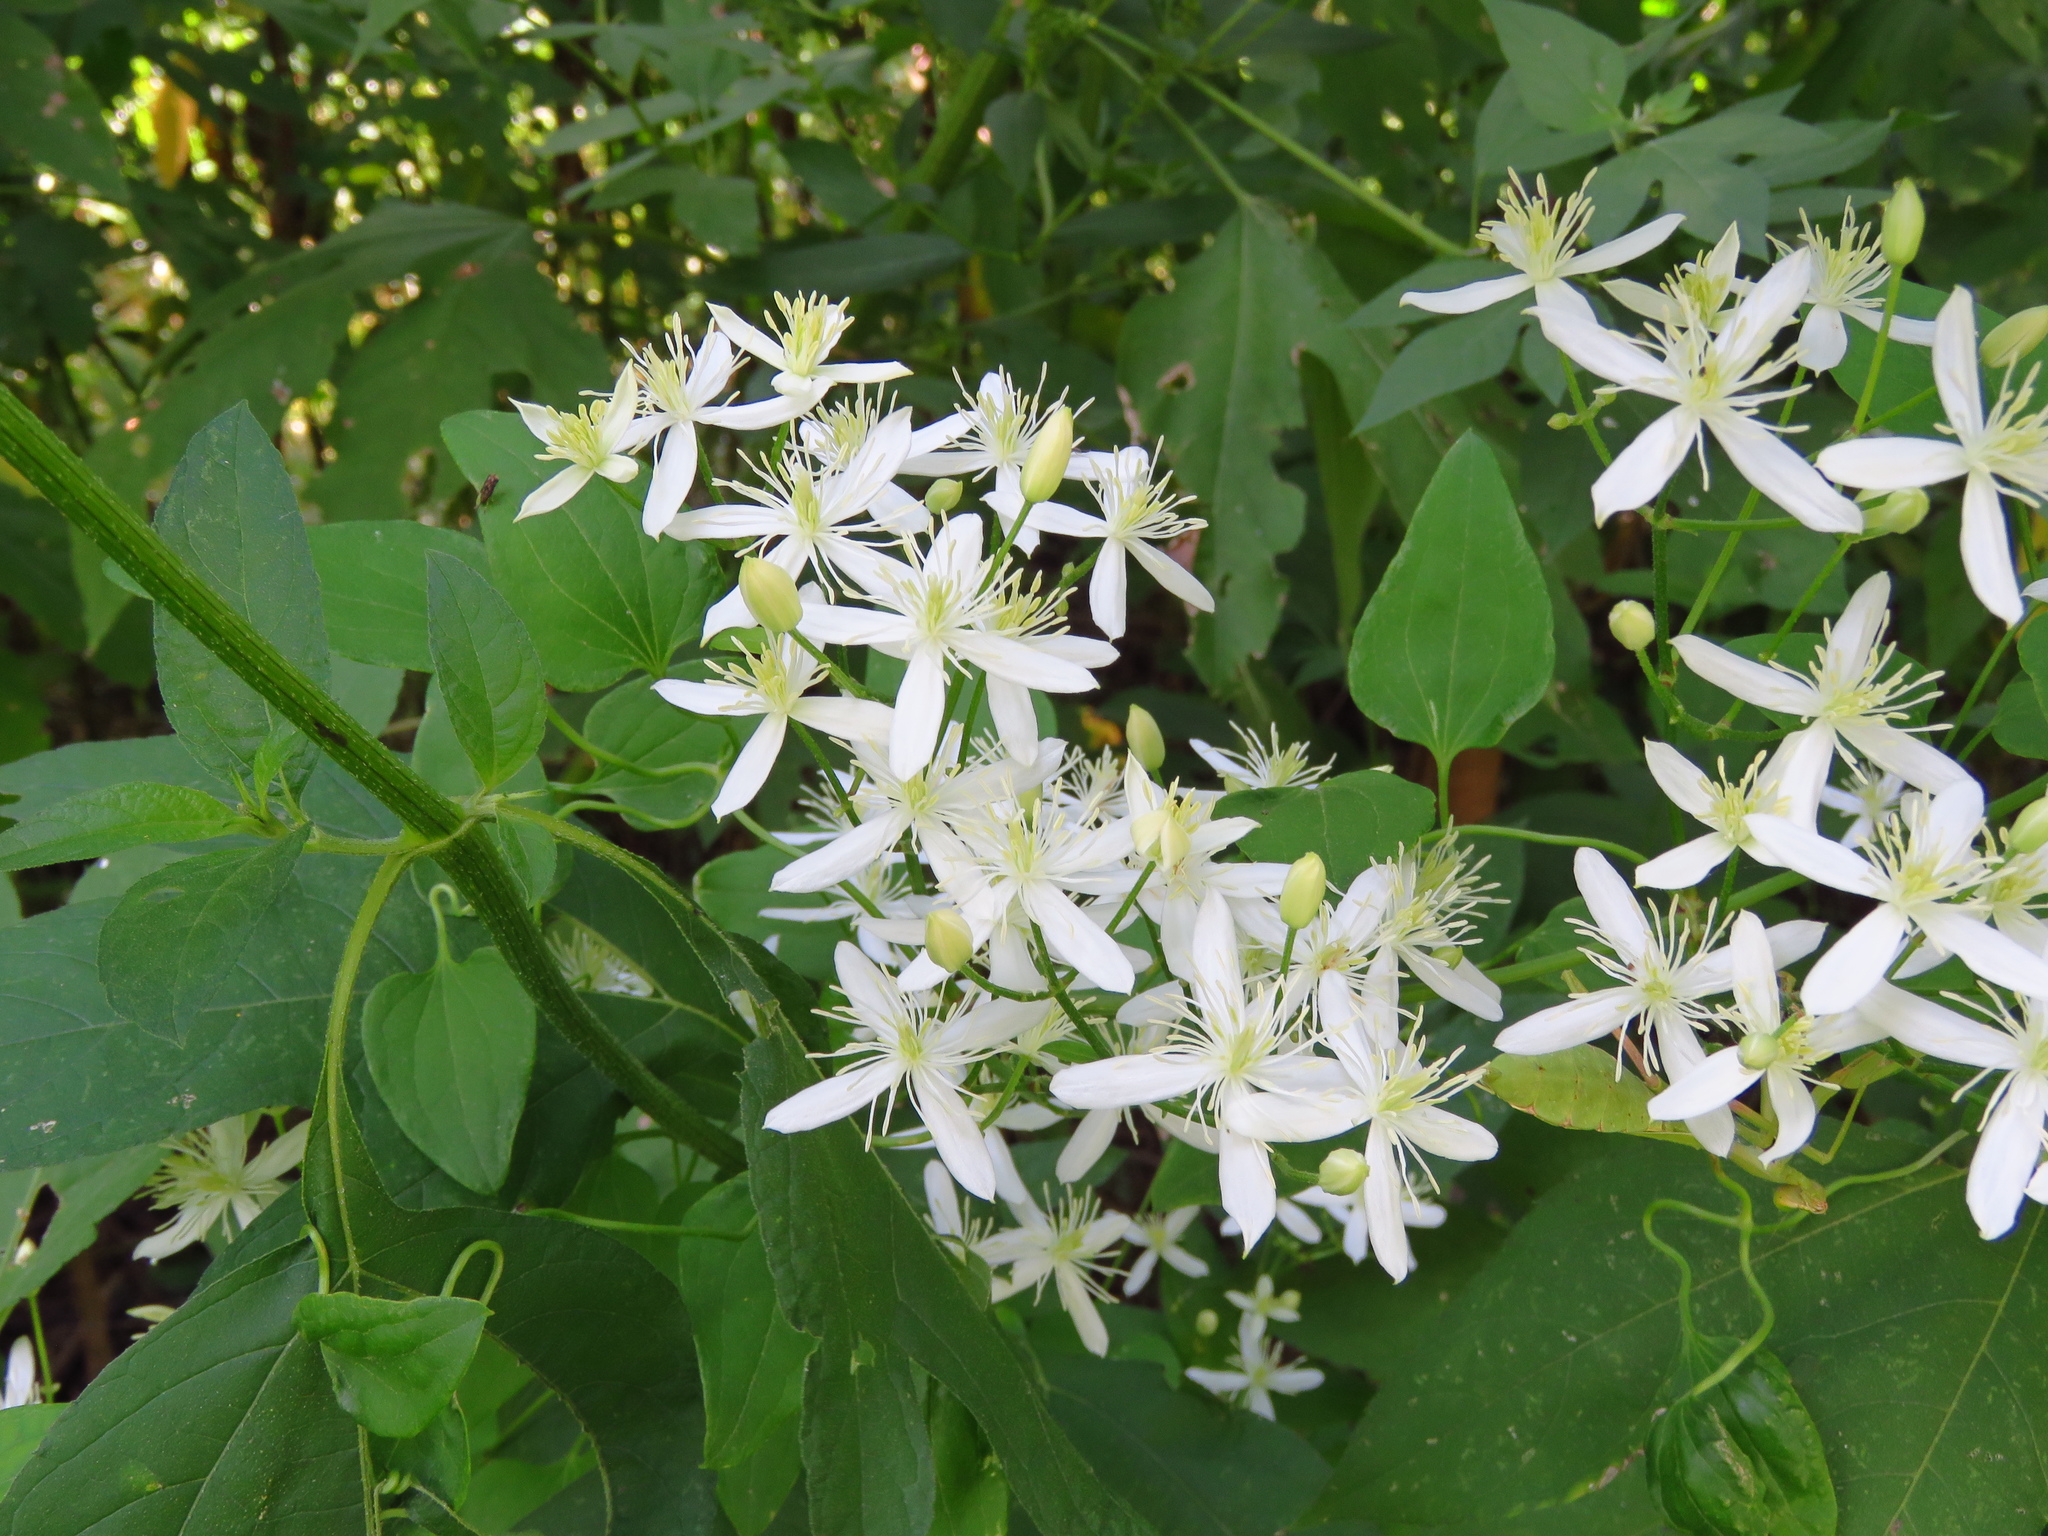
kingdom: Plantae
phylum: Tracheophyta
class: Magnoliopsida
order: Ranunculales
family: Ranunculaceae
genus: Clematis
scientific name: Clematis terniflora
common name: Sweet autumn clematis
